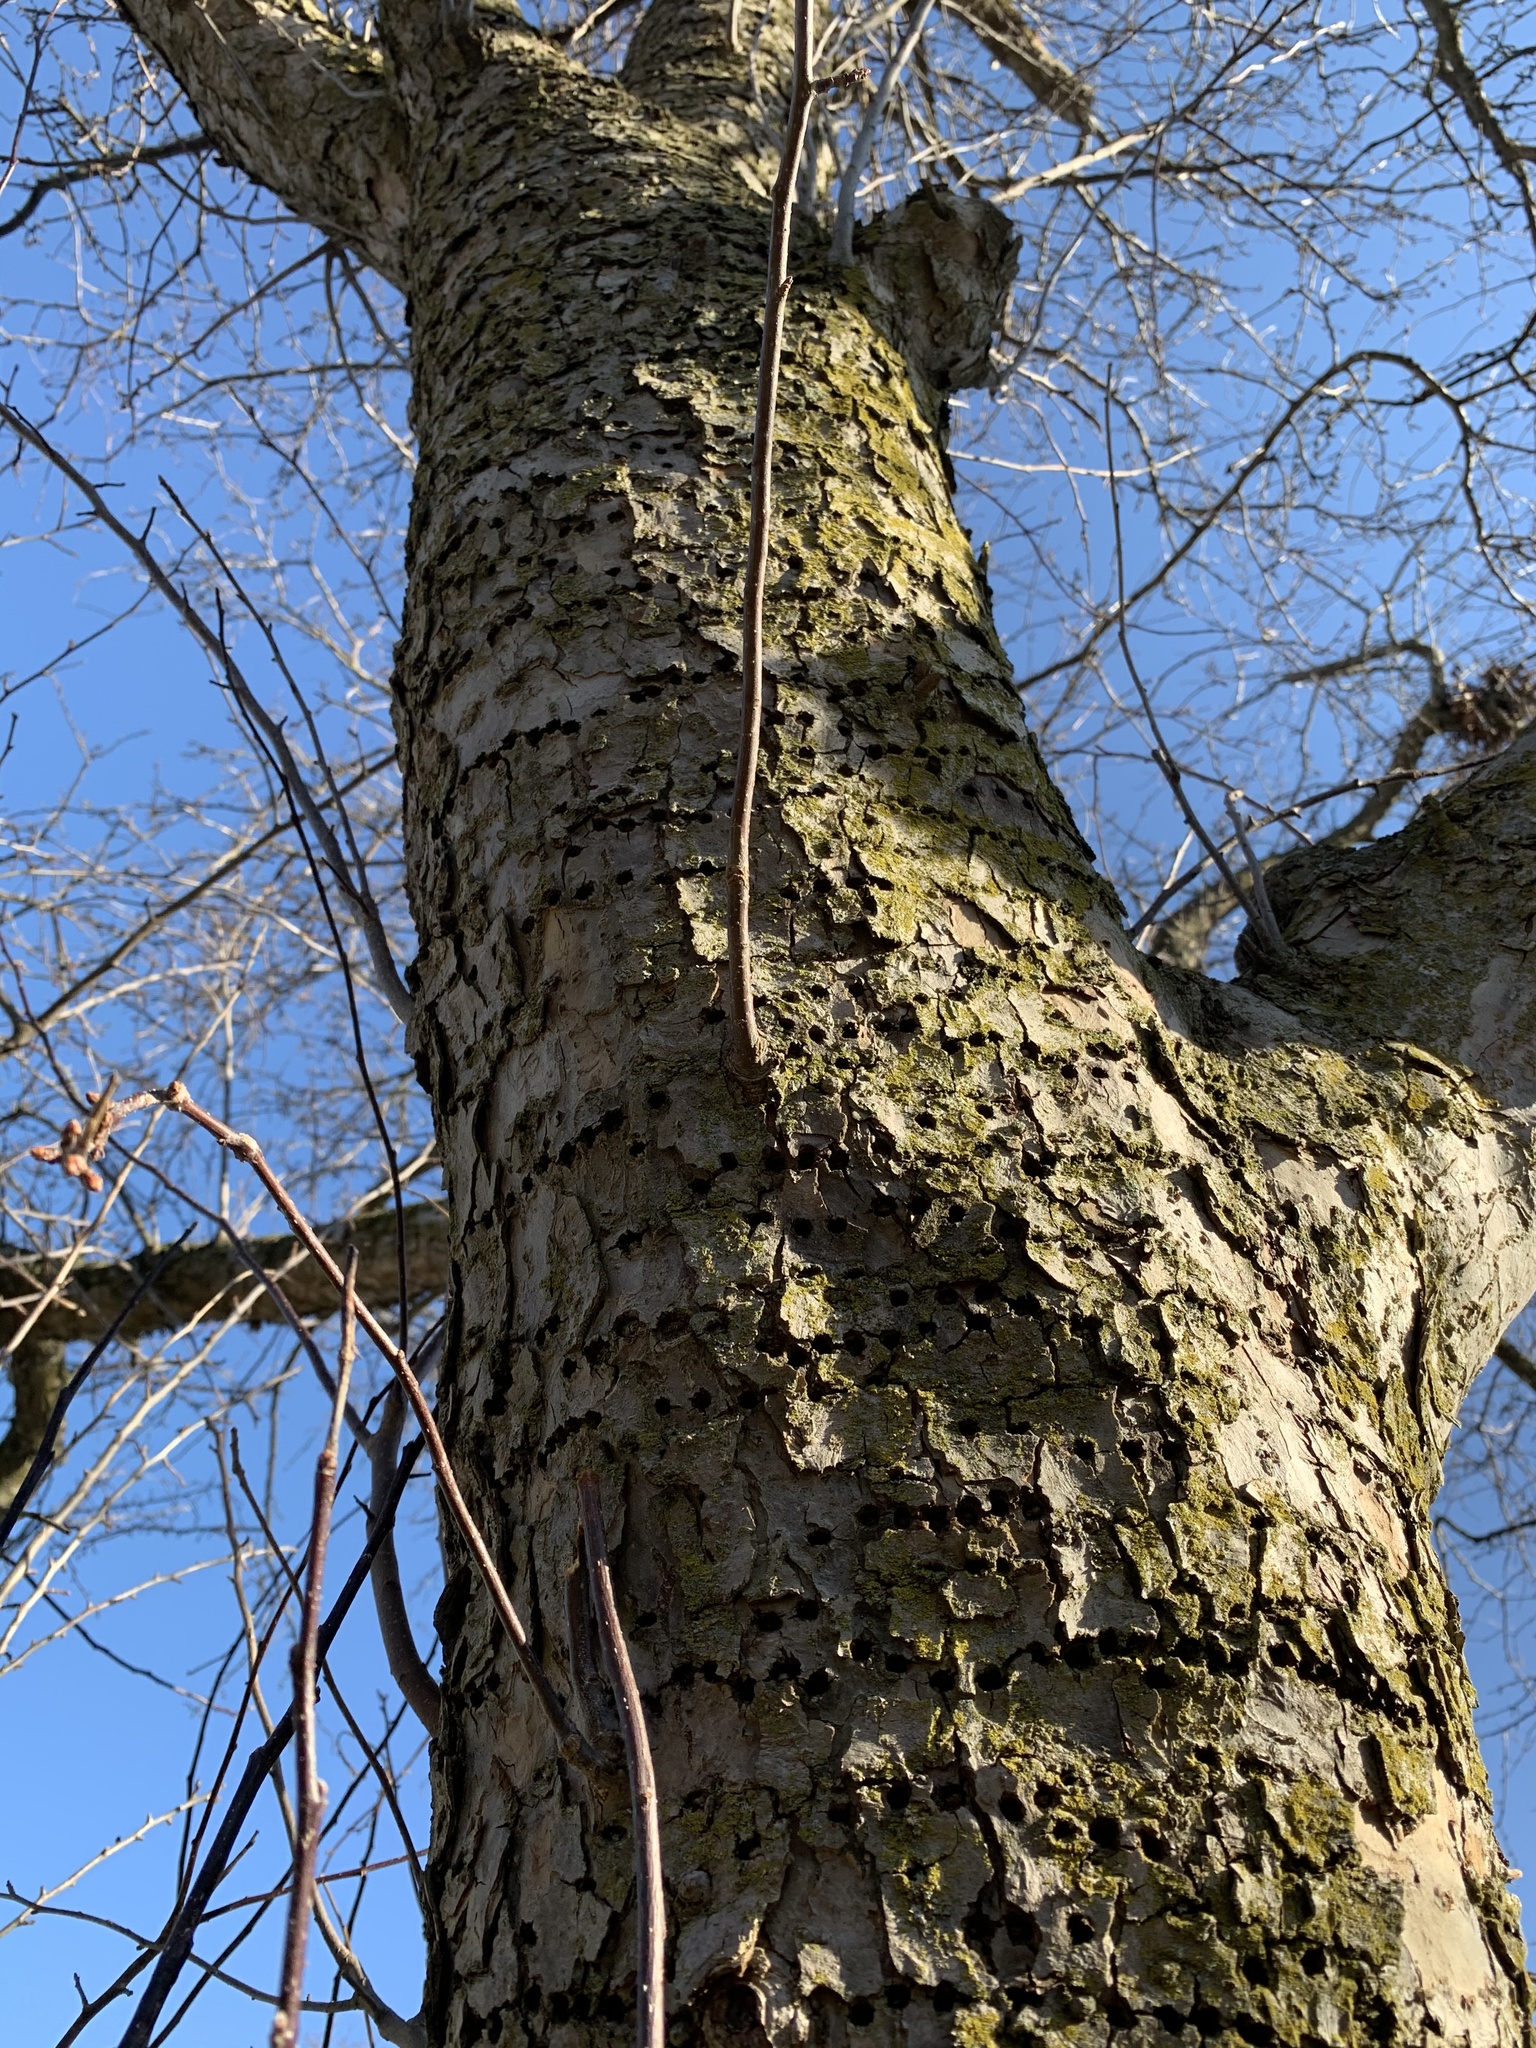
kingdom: Animalia
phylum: Chordata
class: Aves
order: Piciformes
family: Picidae
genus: Sphyrapicus
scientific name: Sphyrapicus varius
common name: Yellow-bellied sapsucker
